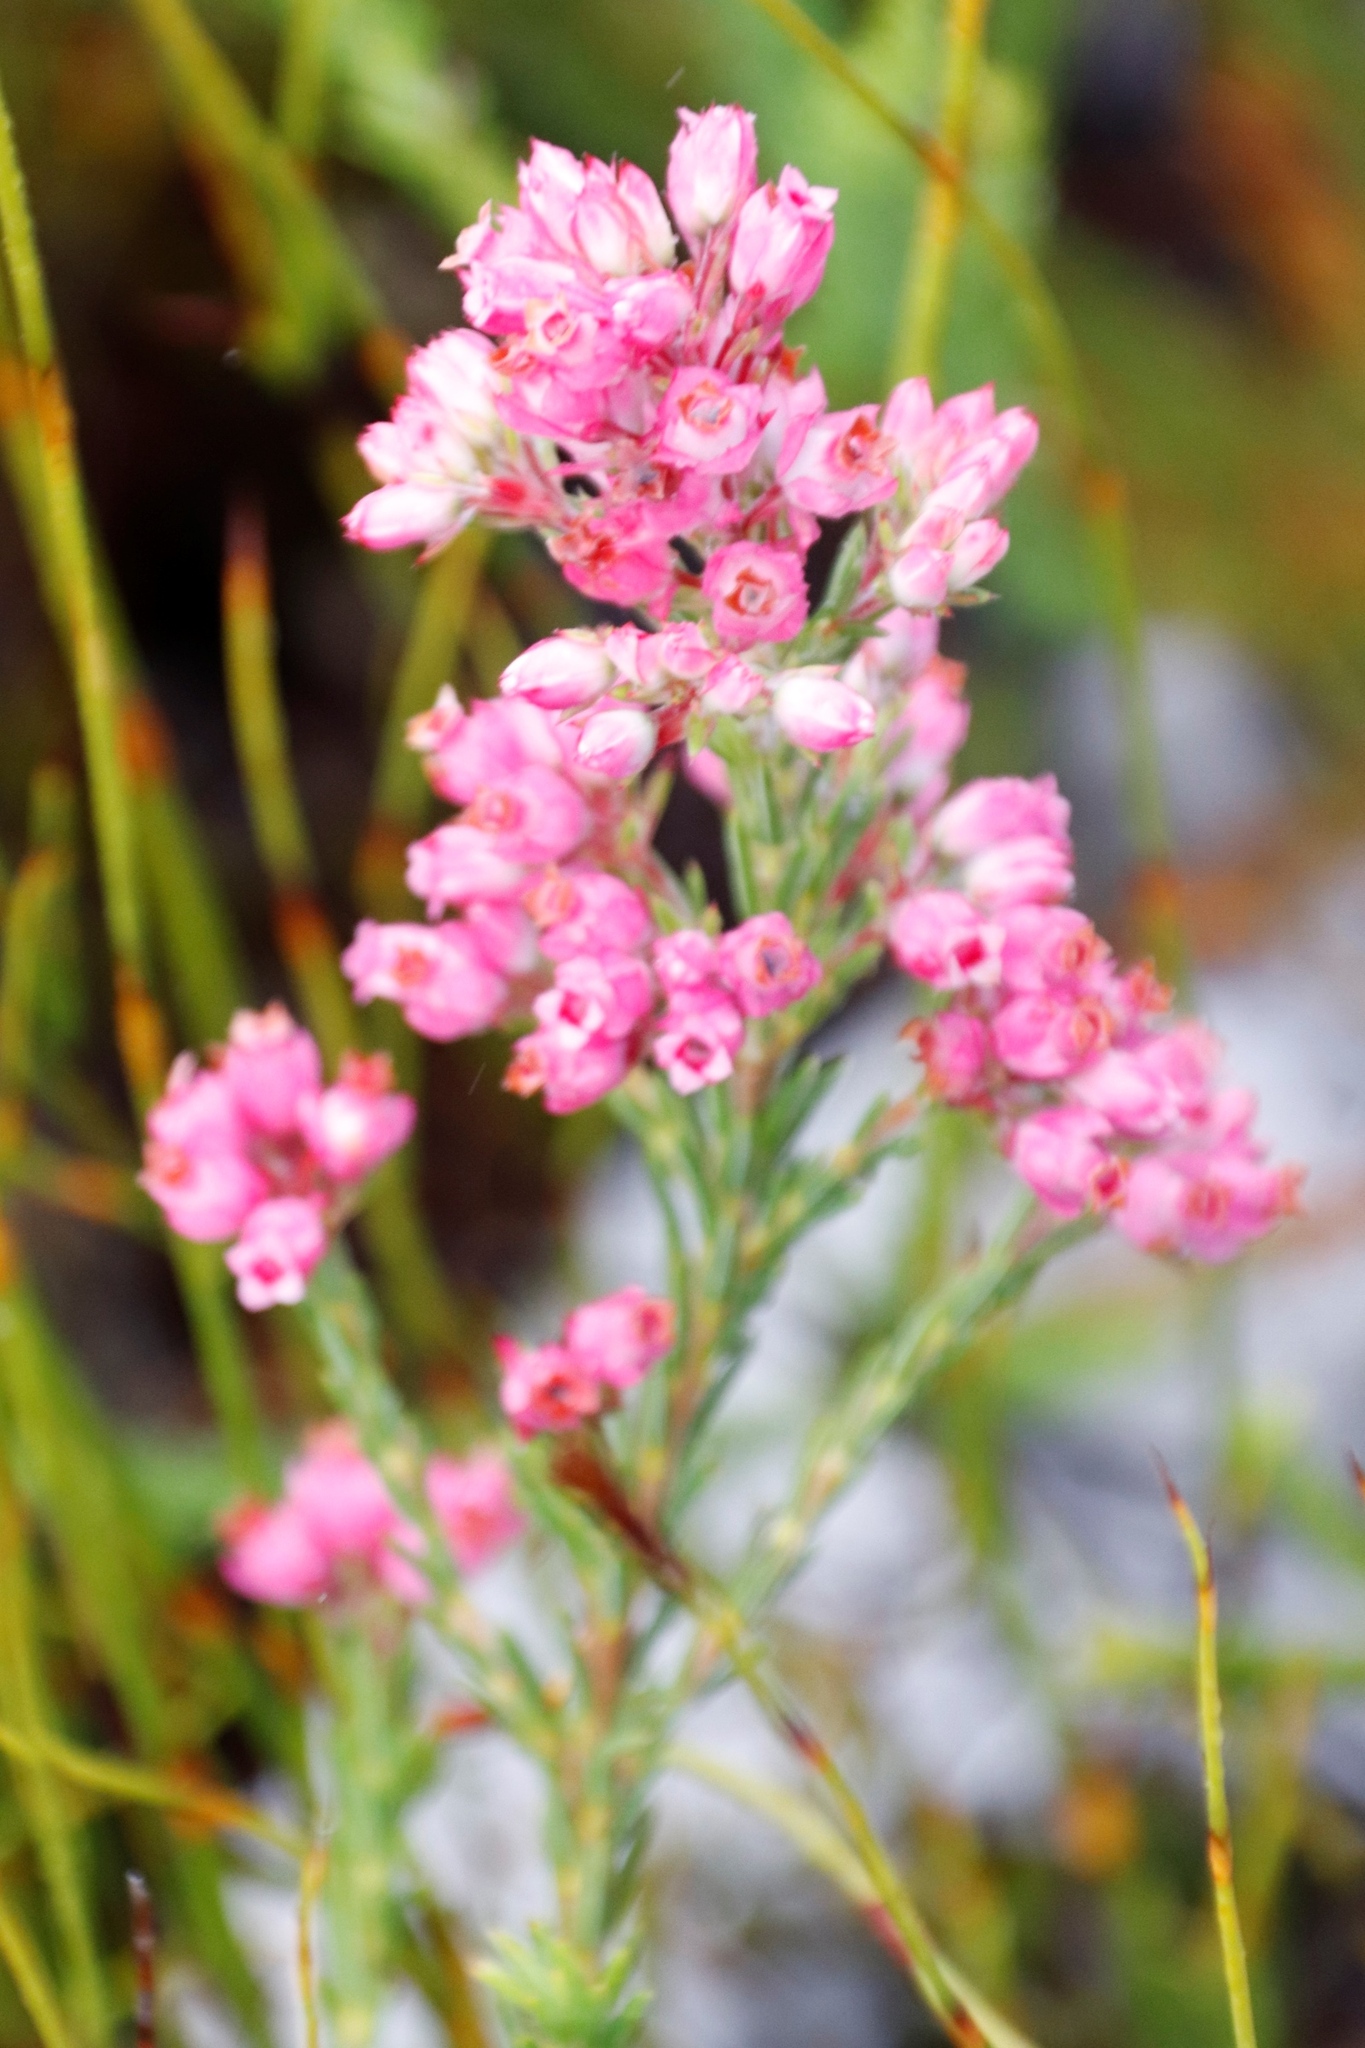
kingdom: Plantae
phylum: Tracheophyta
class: Magnoliopsida
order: Ericales
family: Ericaceae
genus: Erica
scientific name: Erica corifolia
